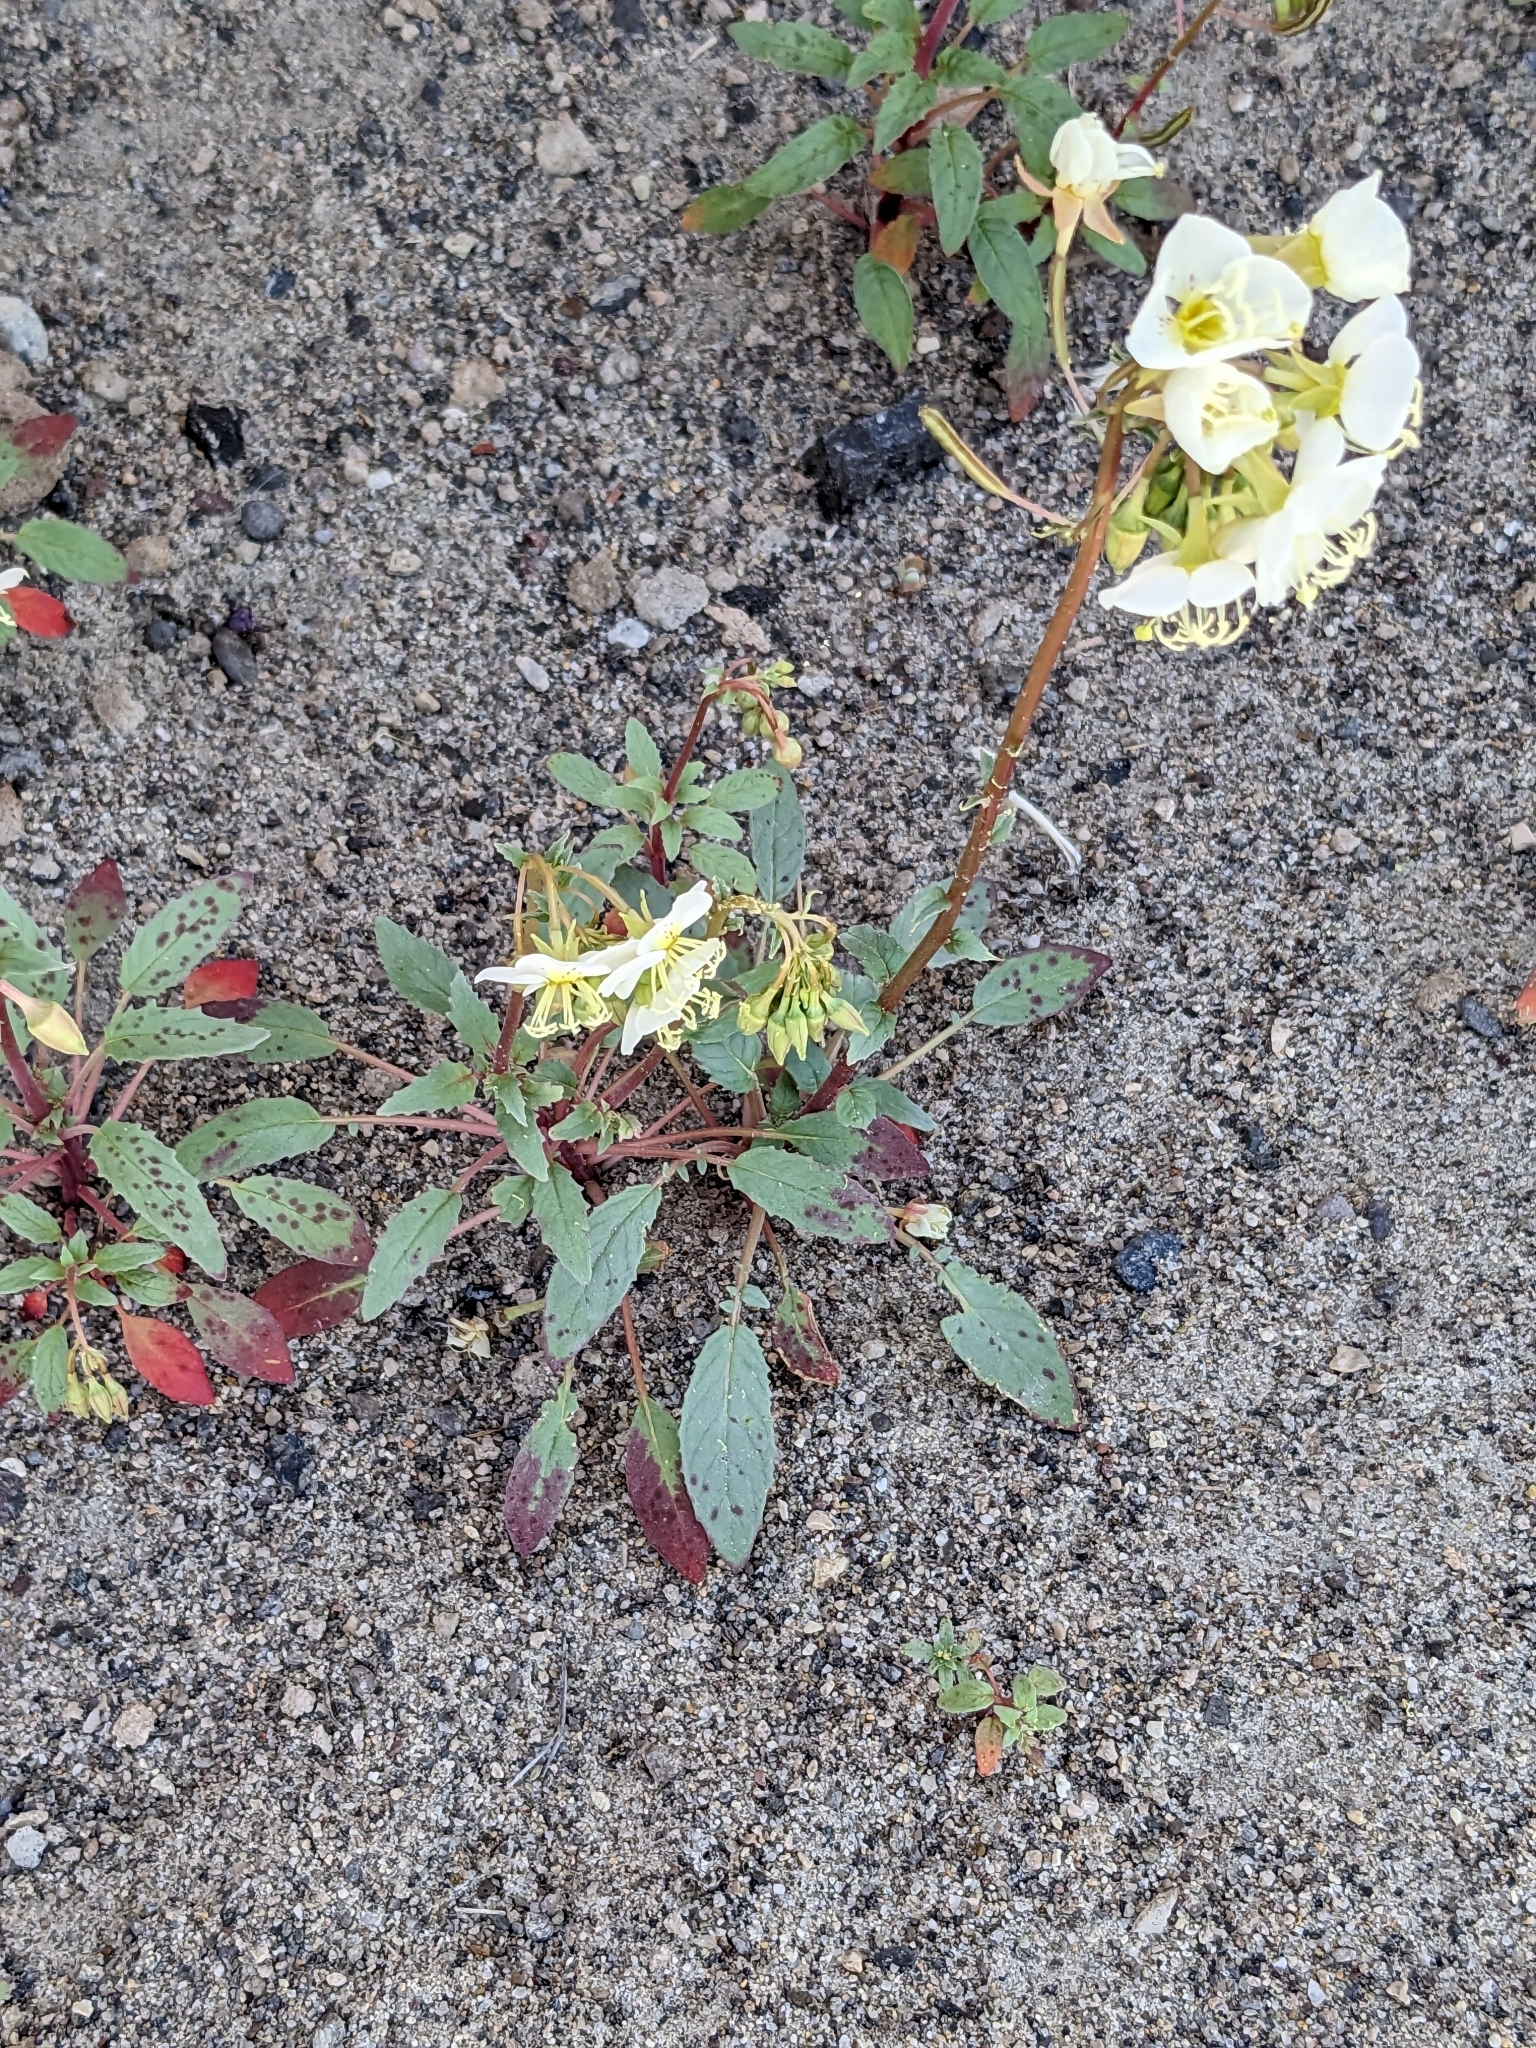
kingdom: Plantae
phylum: Tracheophyta
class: Magnoliopsida
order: Myrtales
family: Onagraceae
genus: Chylismia
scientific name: Chylismia claviformis
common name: Browneyes
